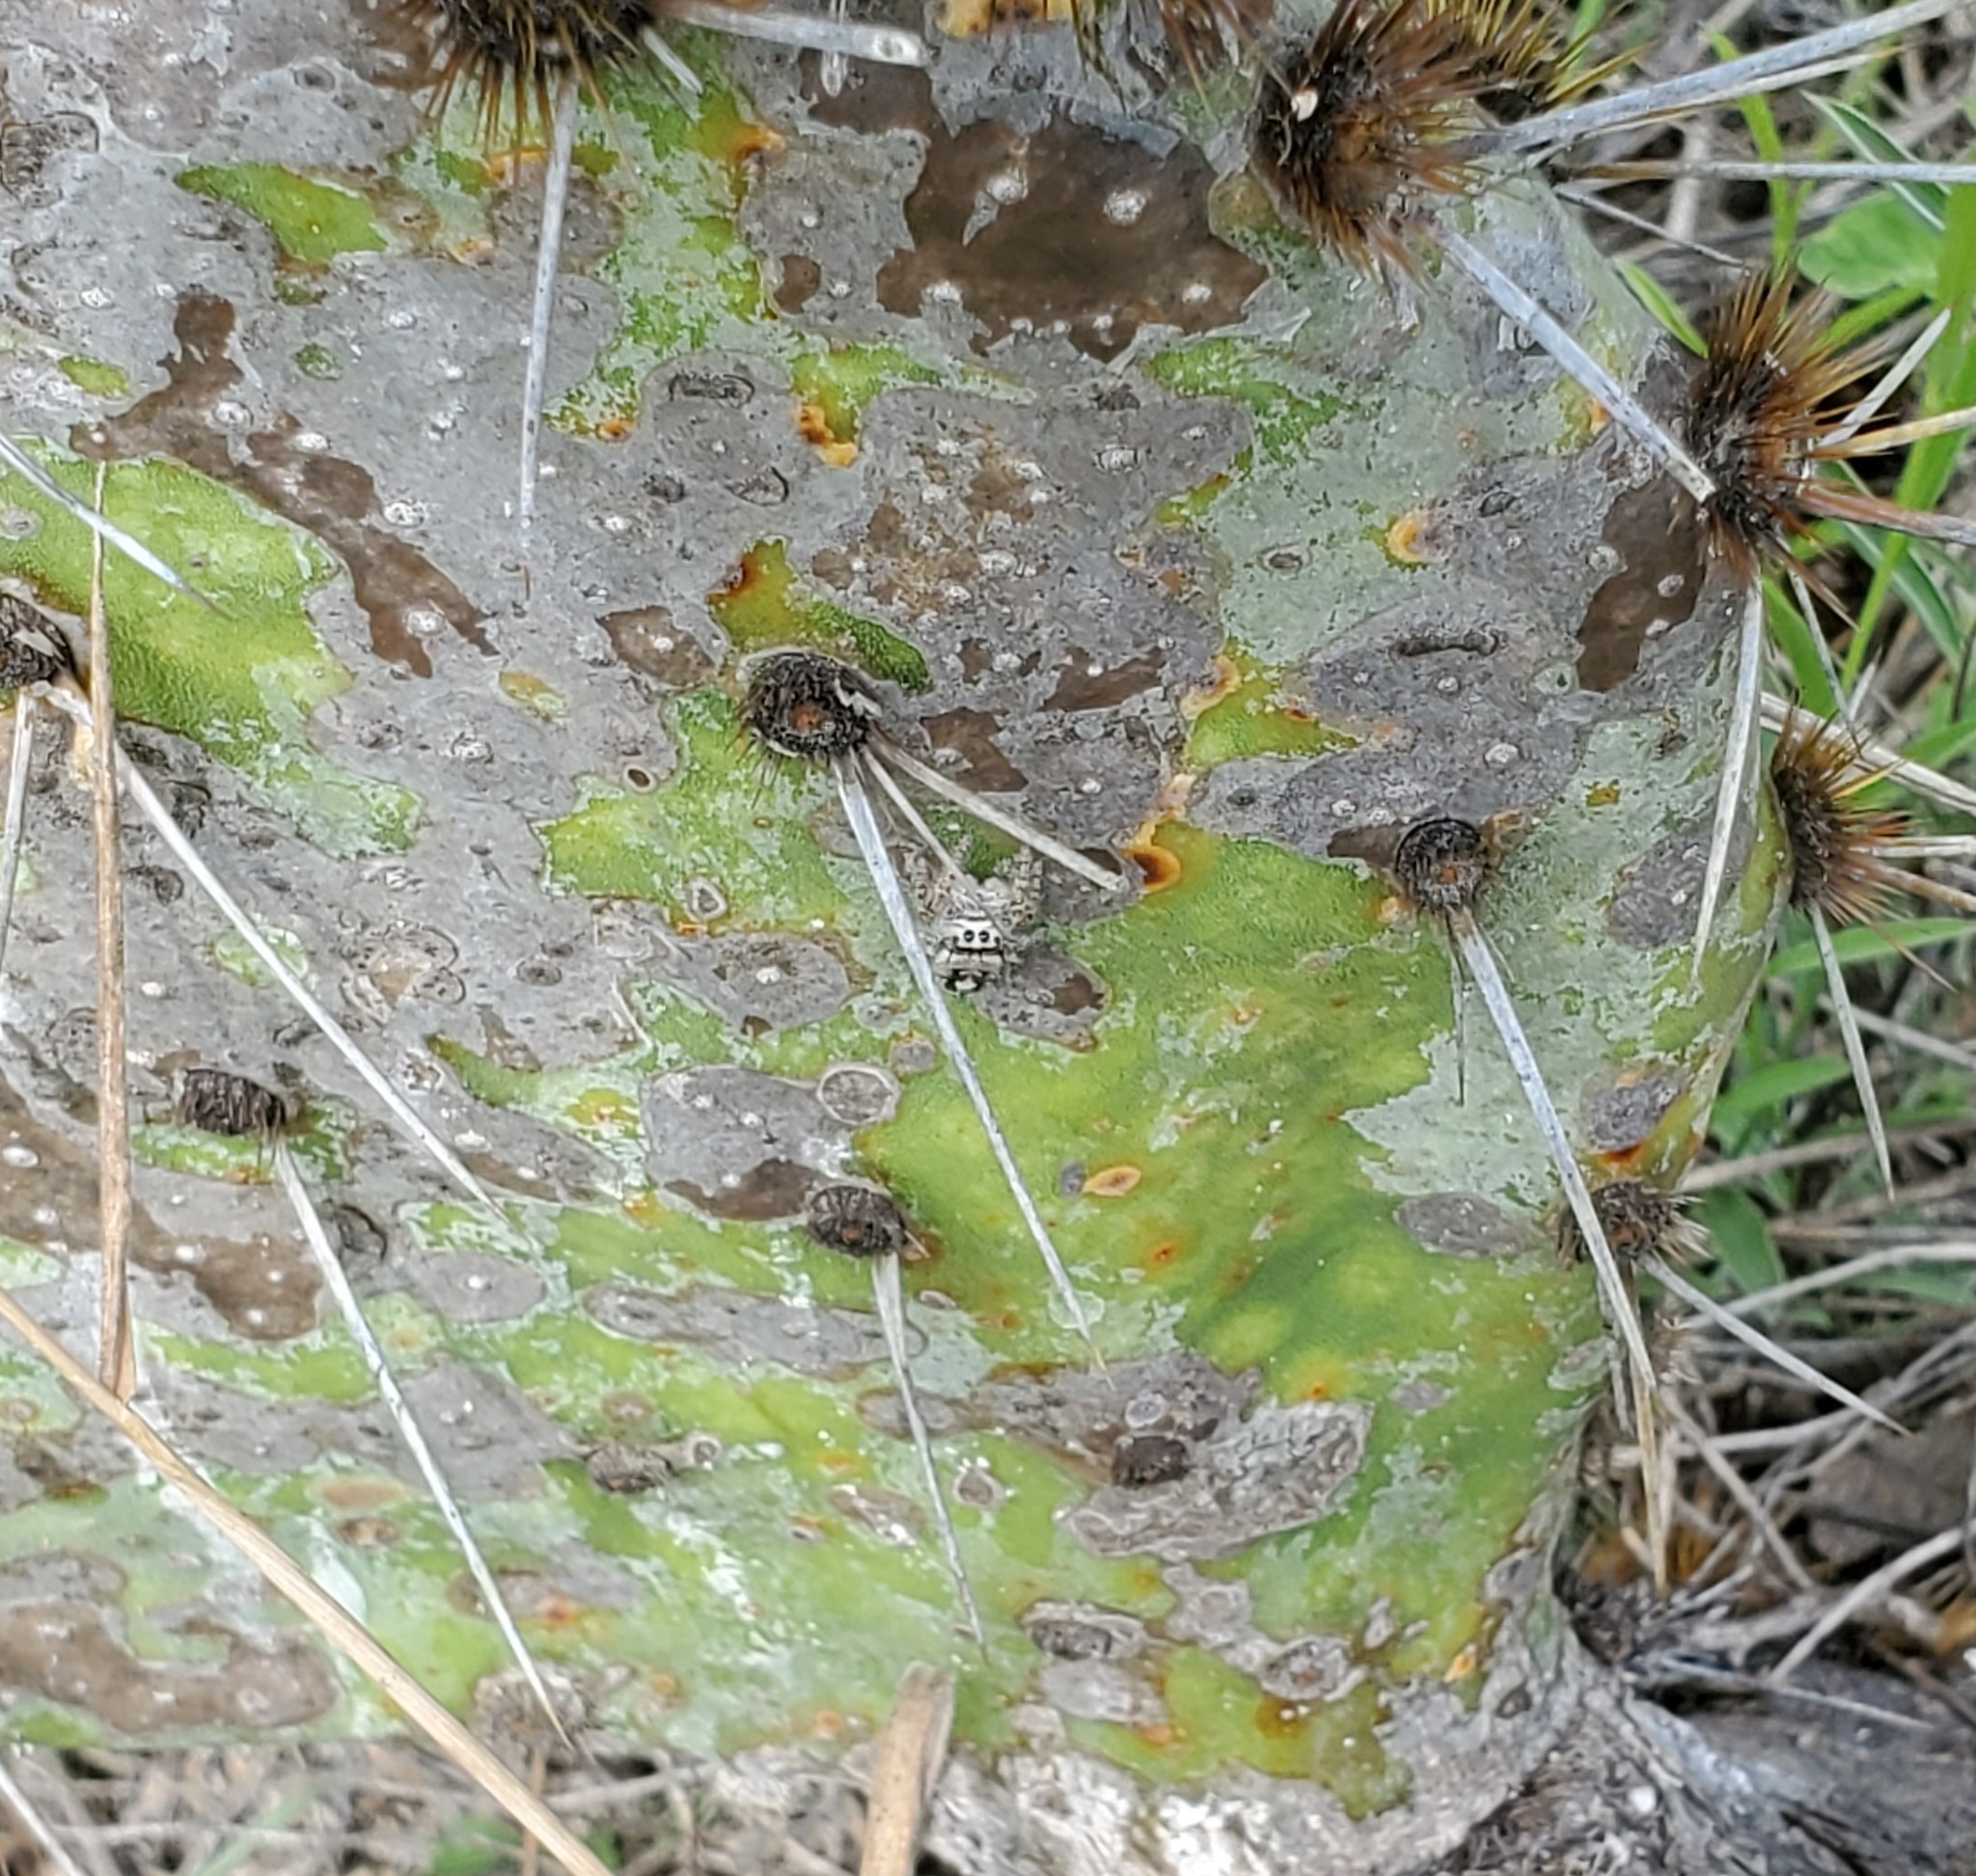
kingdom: Animalia
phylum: Arthropoda
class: Arachnida
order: Araneae
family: Salticidae
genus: Phidippus
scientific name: Phidippus carolinensis
